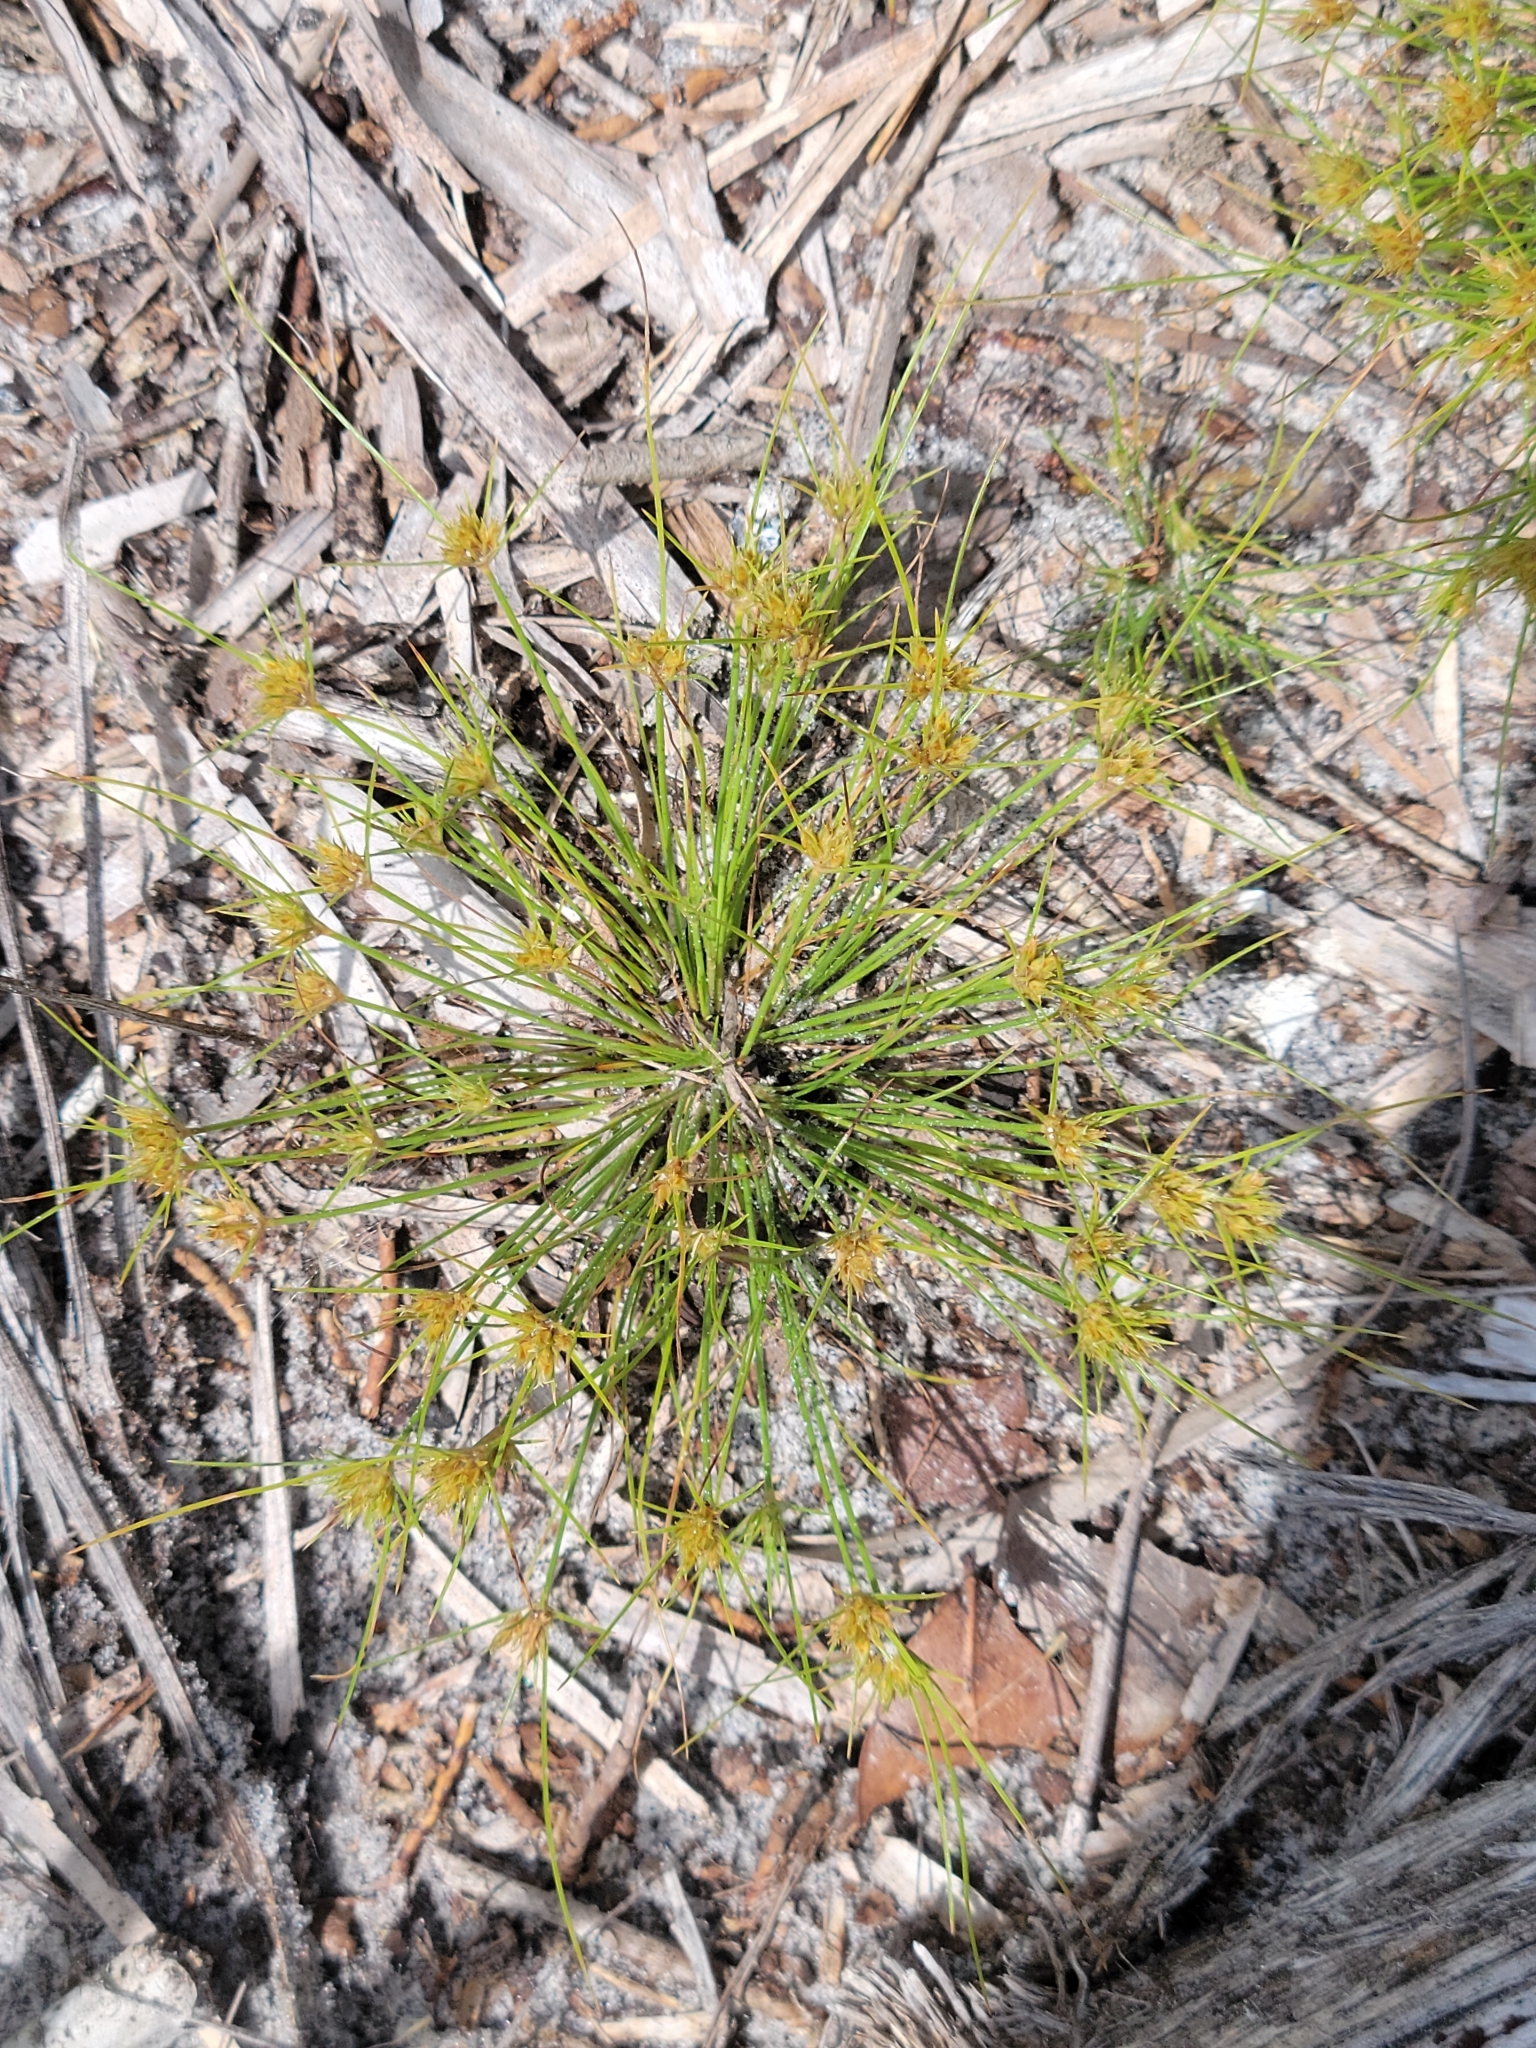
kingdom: Plantae
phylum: Tracheophyta
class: Liliopsida
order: Poales
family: Cyperaceae
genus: Bulbostylis
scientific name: Bulbostylis stenophylla
